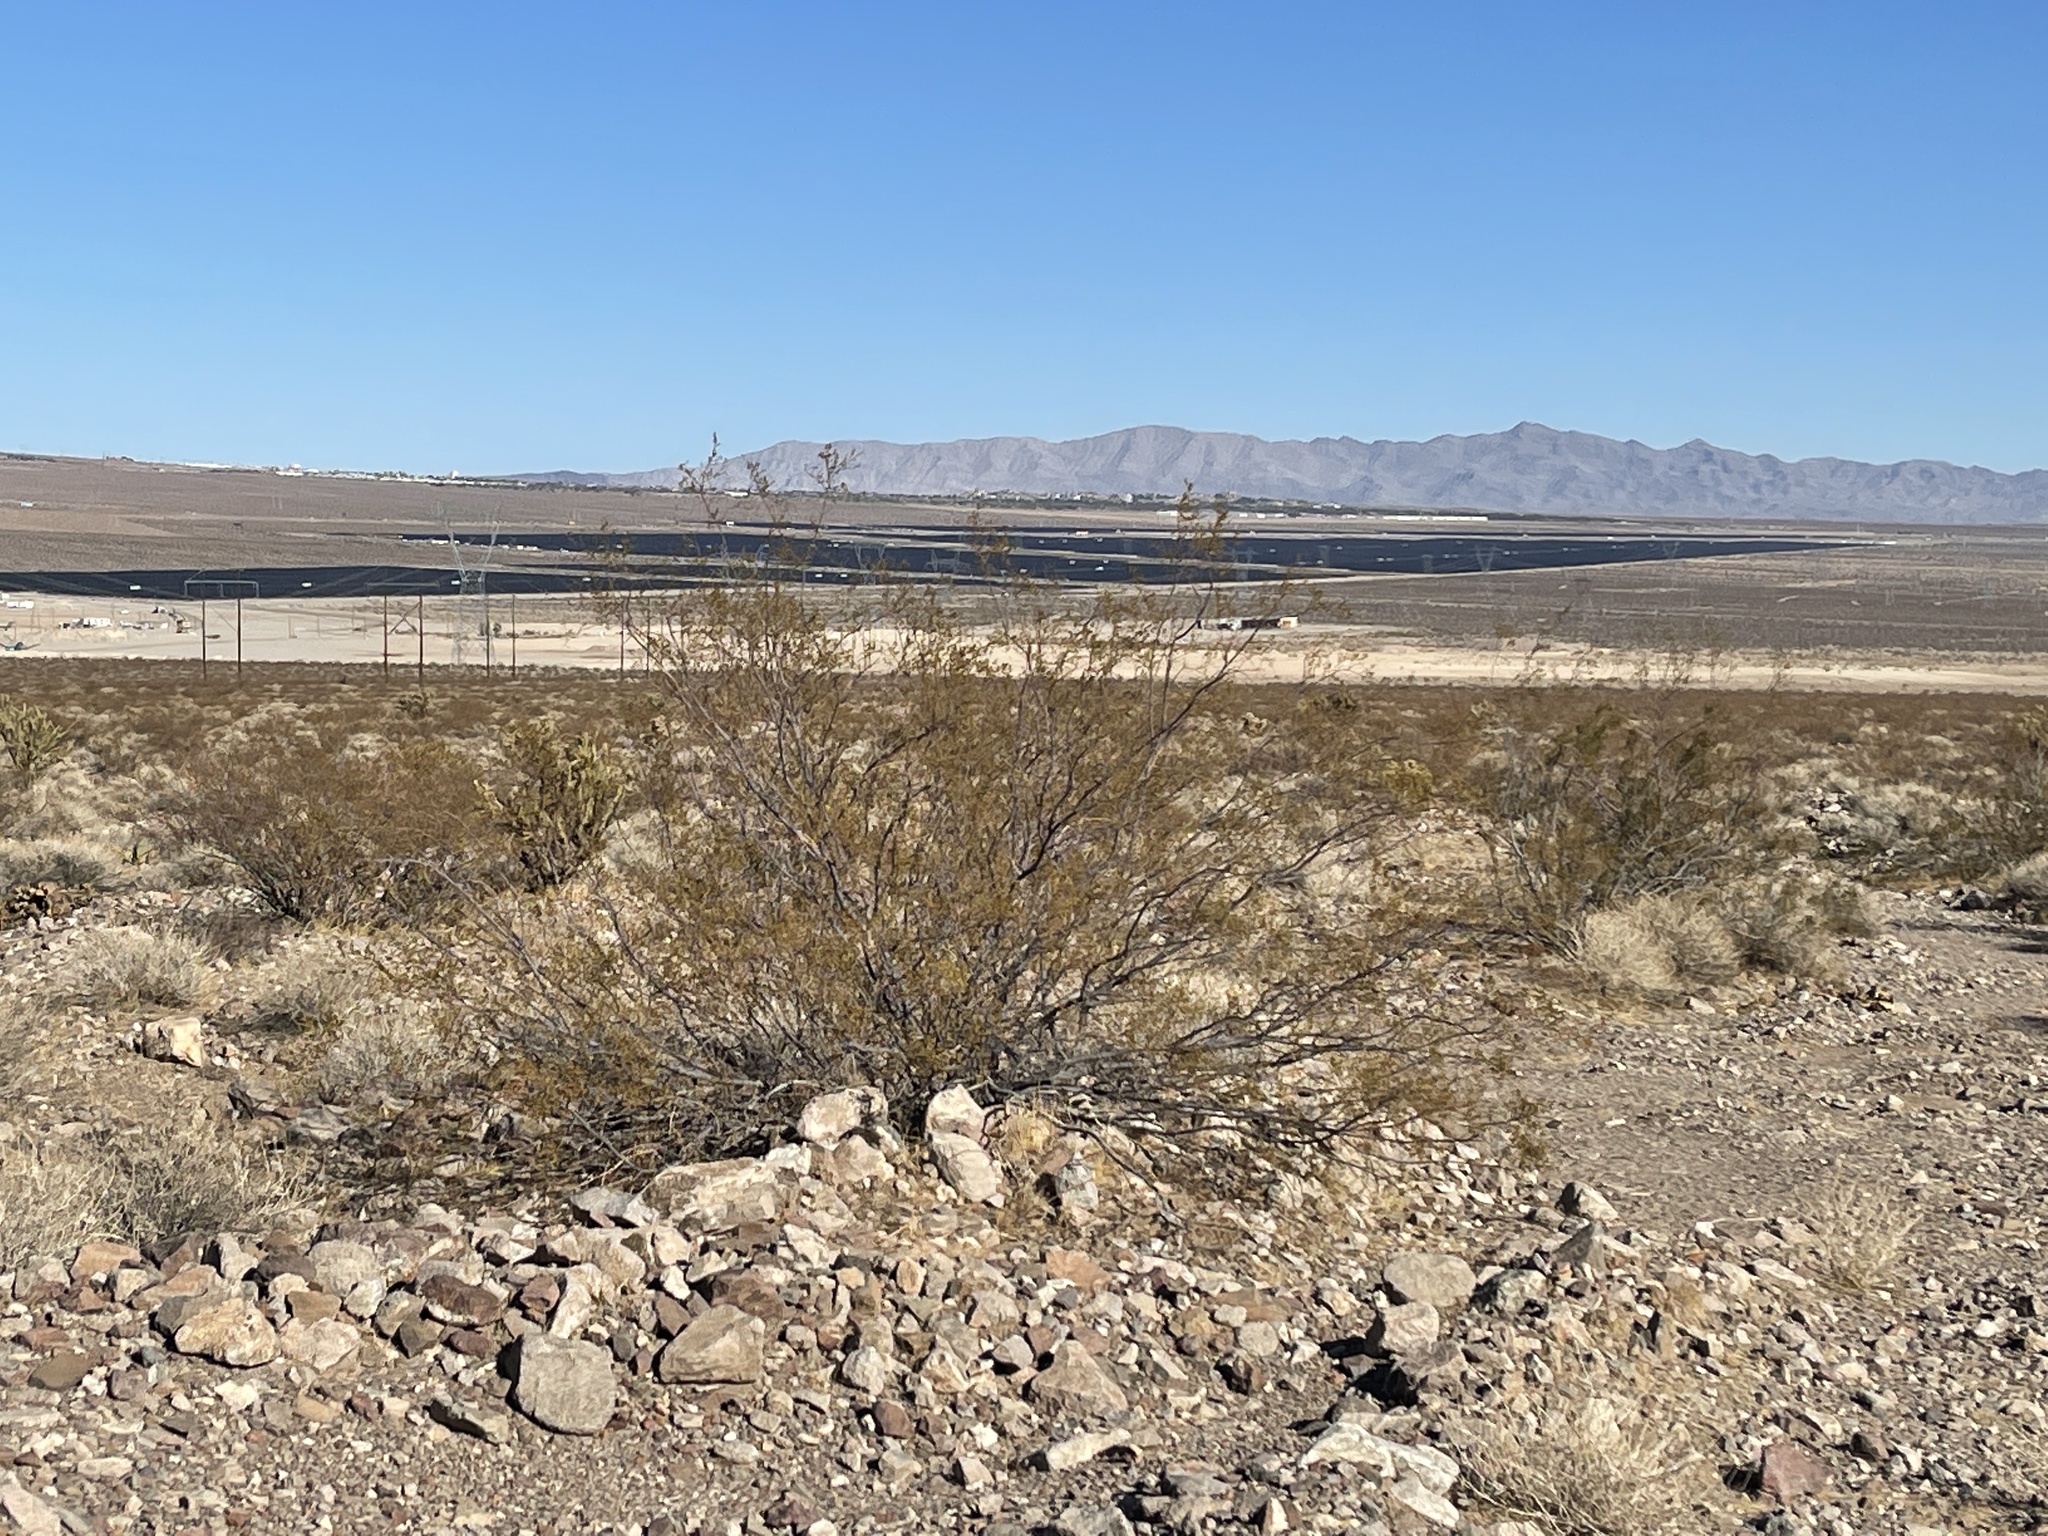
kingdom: Plantae
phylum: Tracheophyta
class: Magnoliopsida
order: Zygophyllales
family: Zygophyllaceae
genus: Larrea
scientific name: Larrea tridentata
